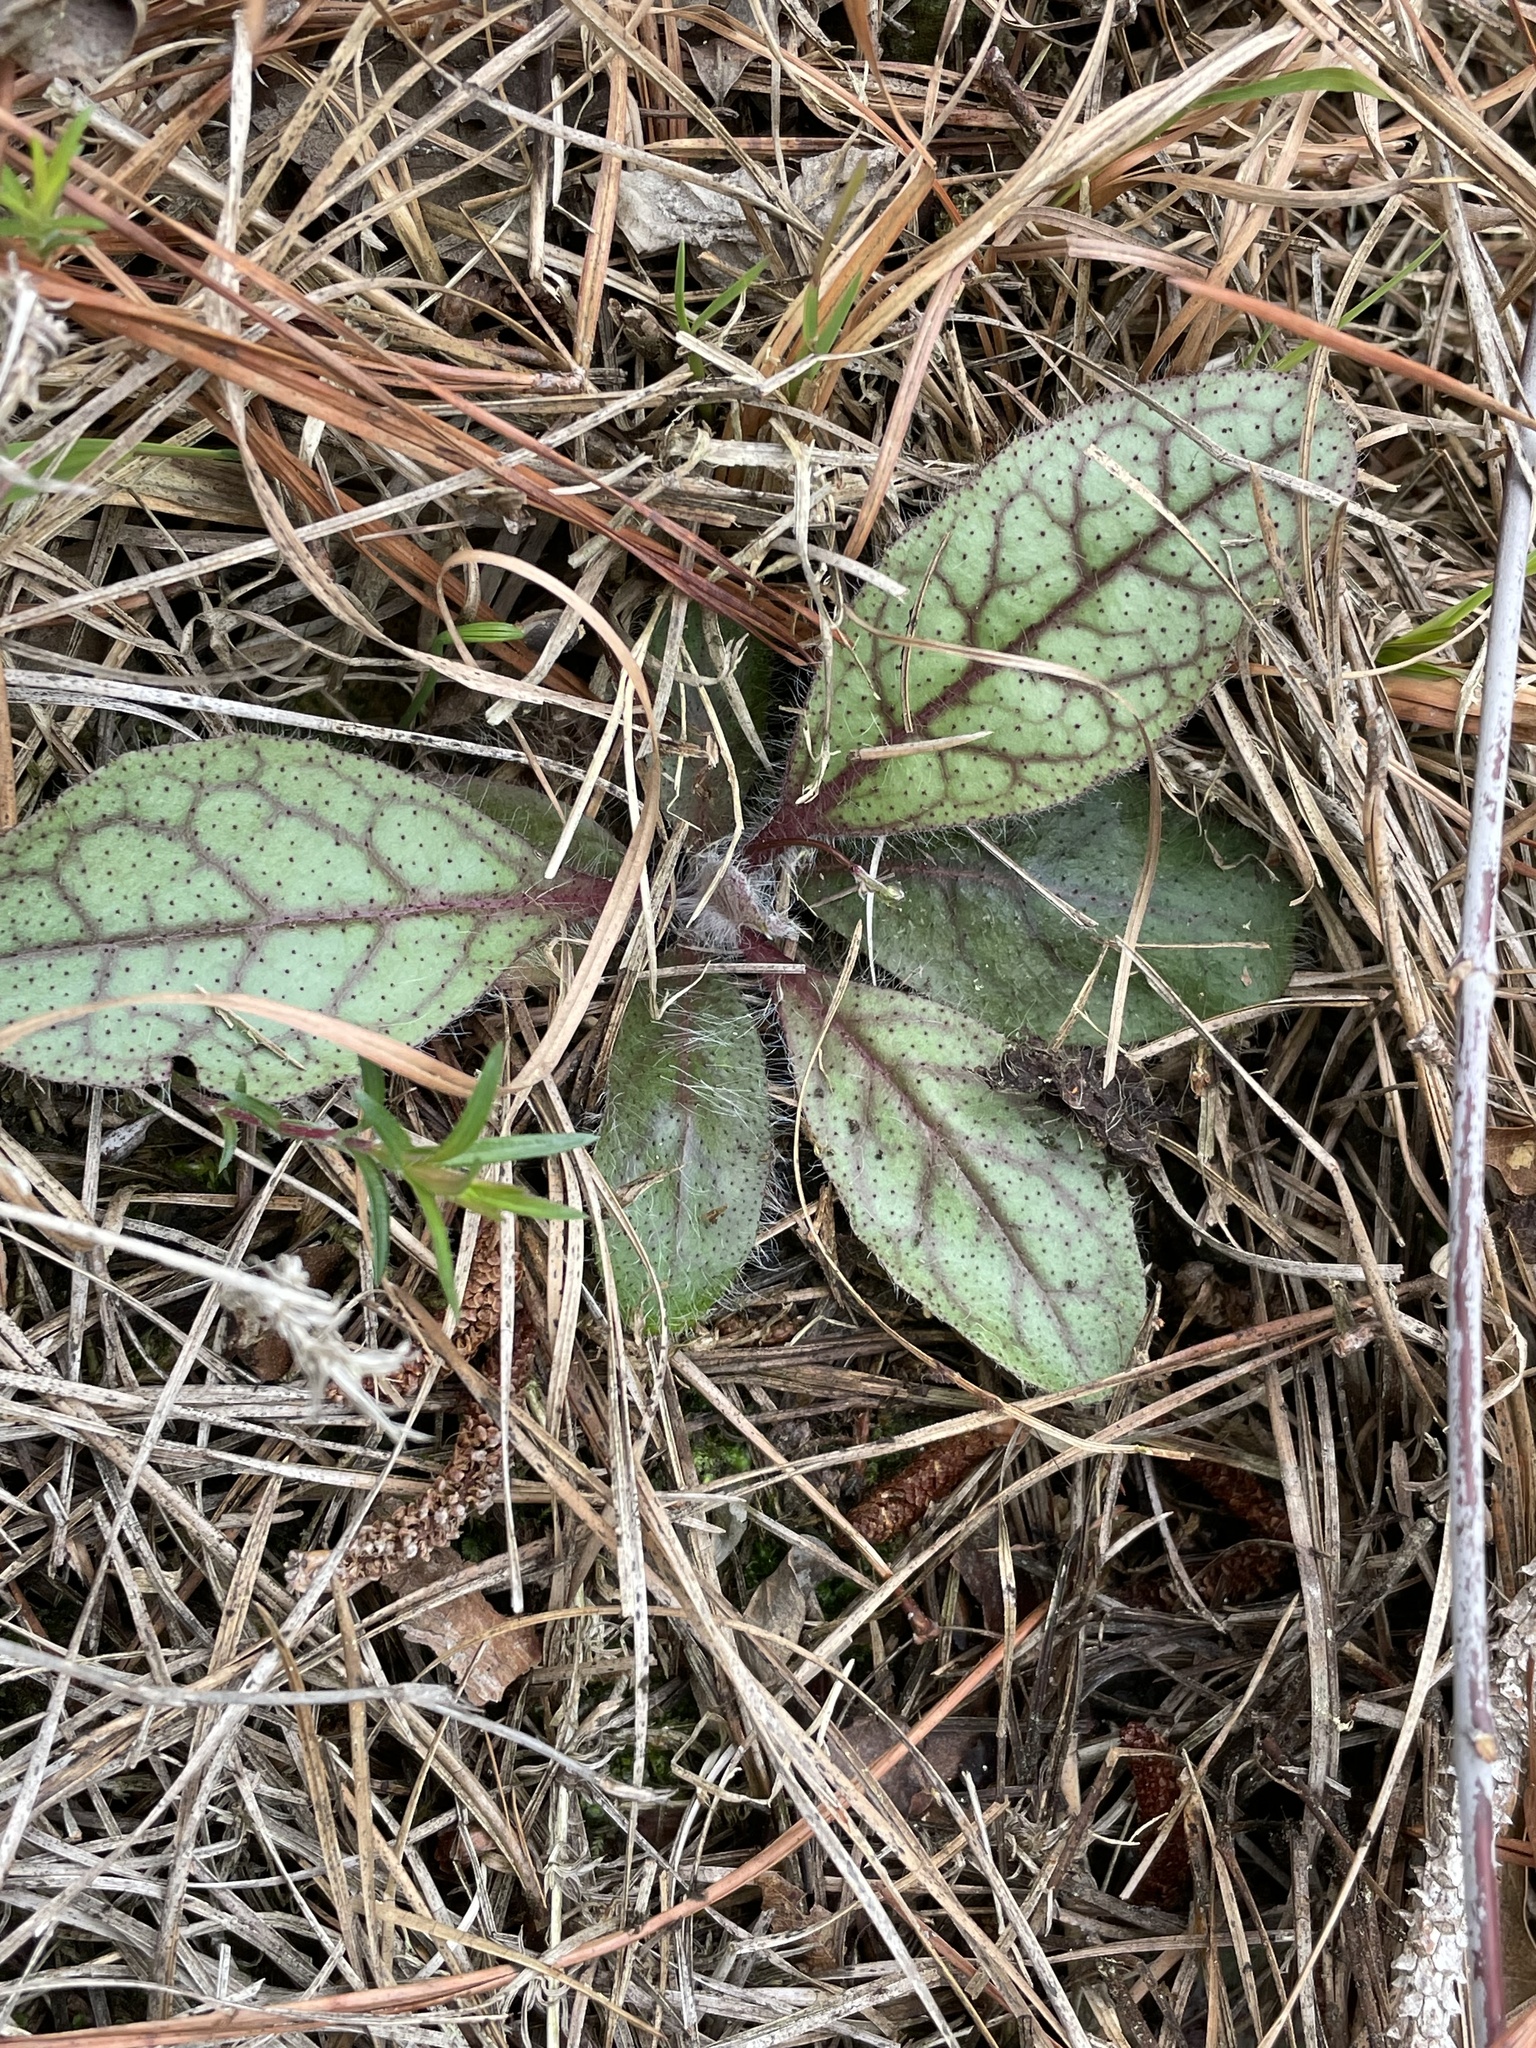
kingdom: Plantae
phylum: Tracheophyta
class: Magnoliopsida
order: Asterales
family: Asteraceae
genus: Hieracium
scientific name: Hieracium venosum
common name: Rattlesnake hawkweed
